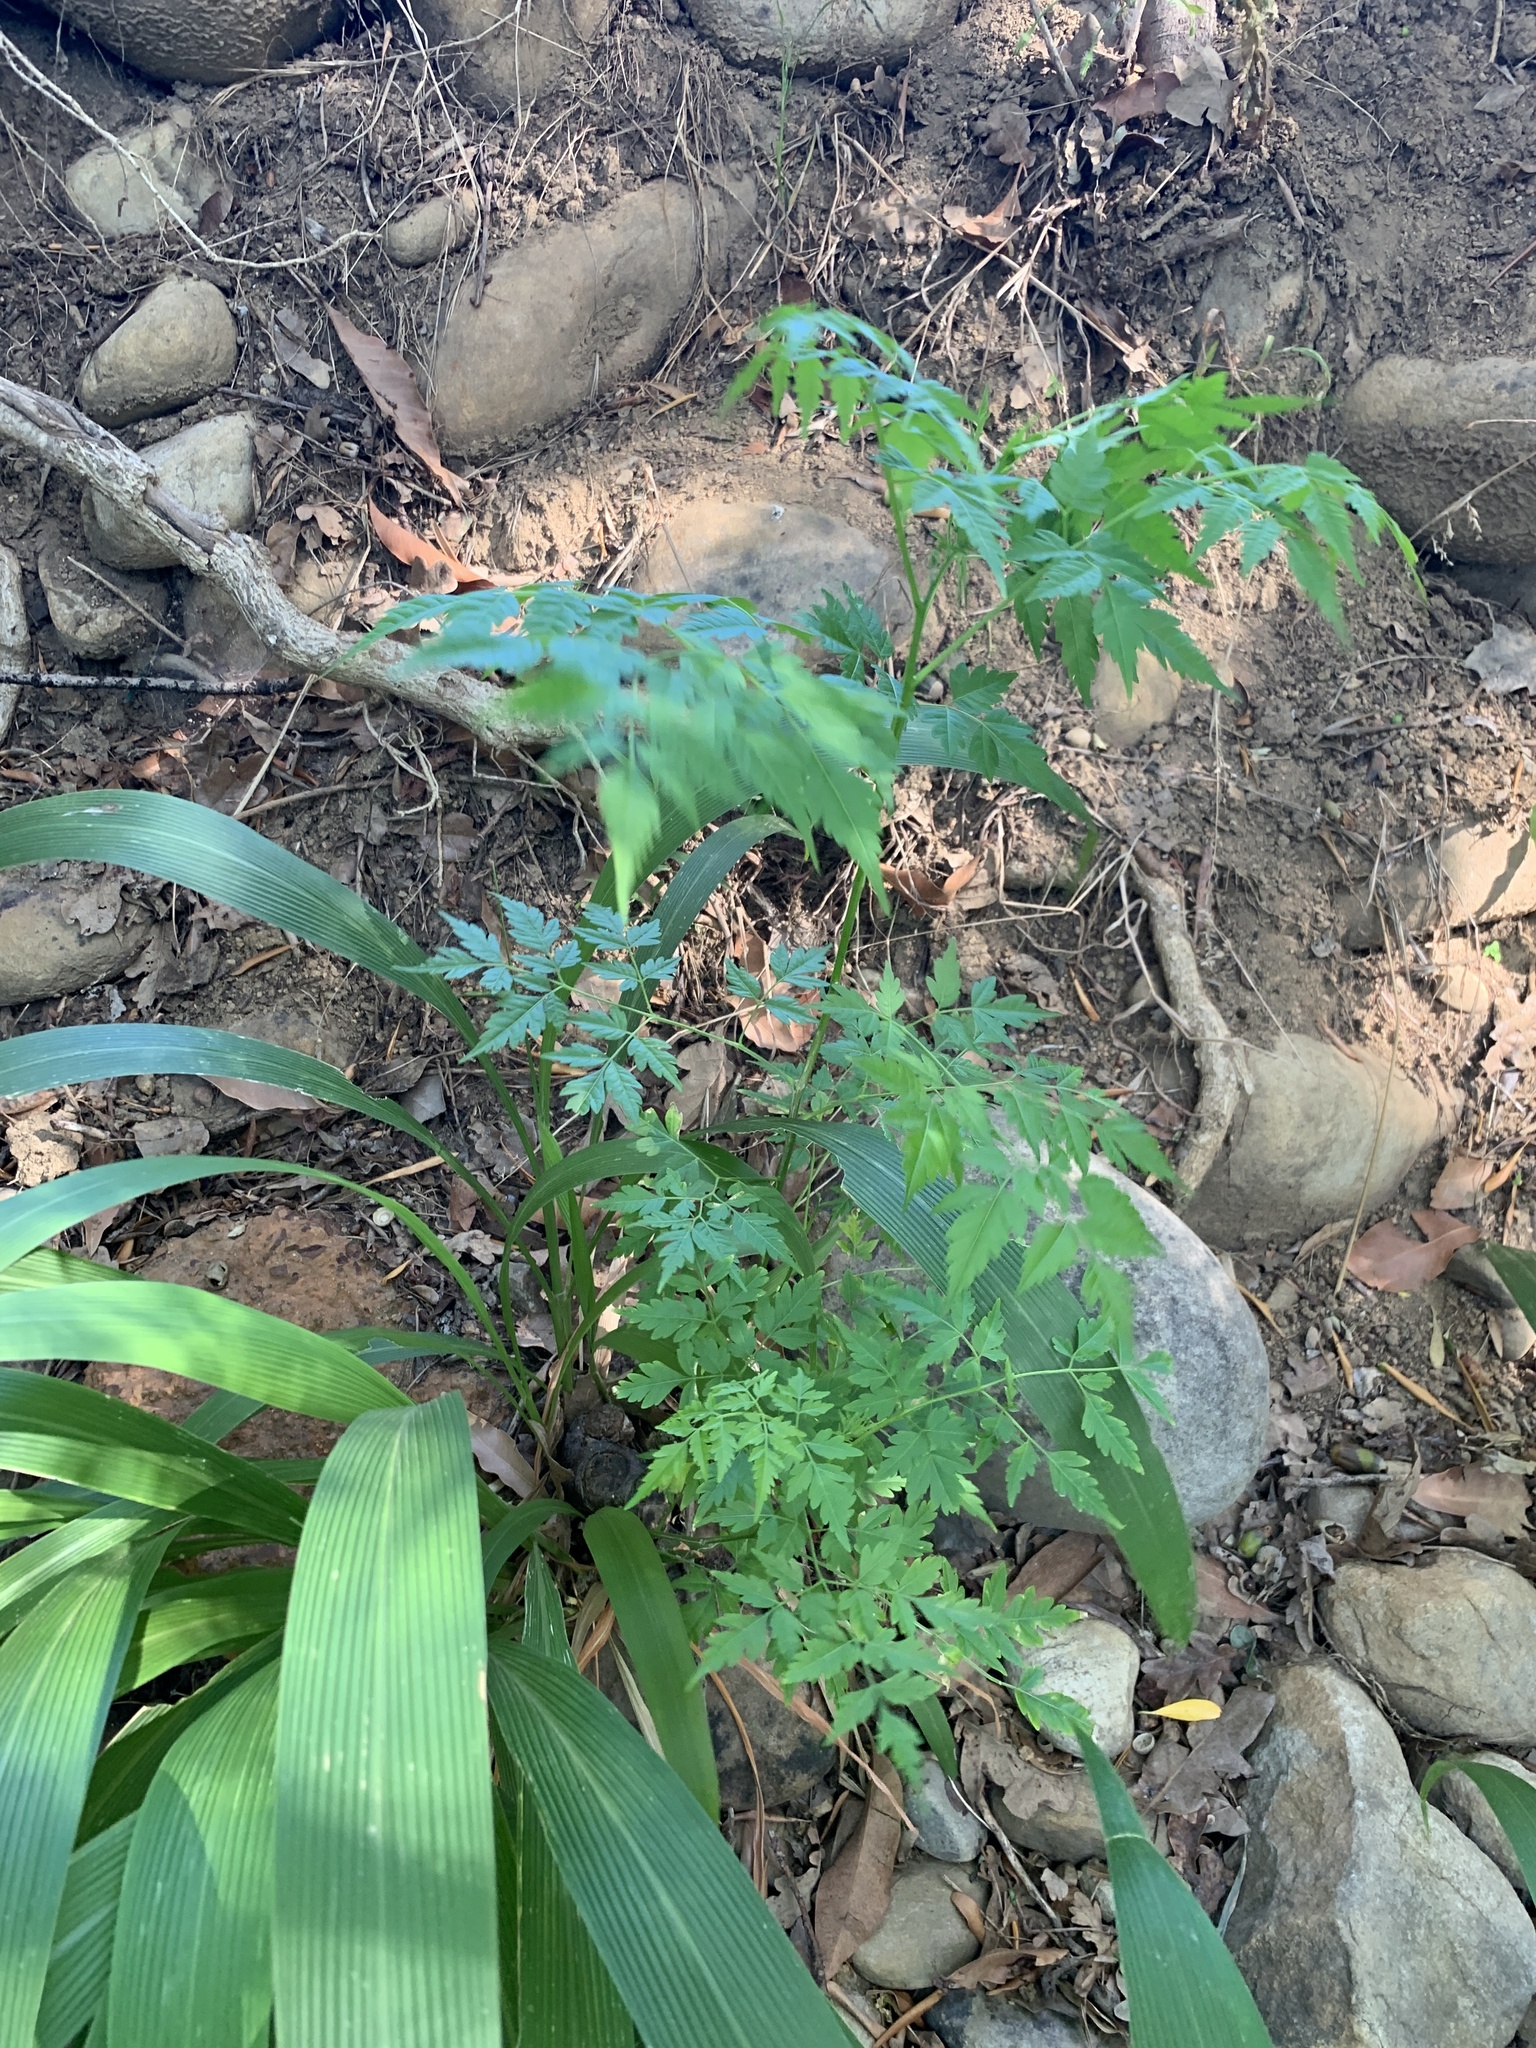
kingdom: Plantae
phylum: Tracheophyta
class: Magnoliopsida
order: Sapindales
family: Meliaceae
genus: Melia
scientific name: Melia azedarach
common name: Chinaberrytree
